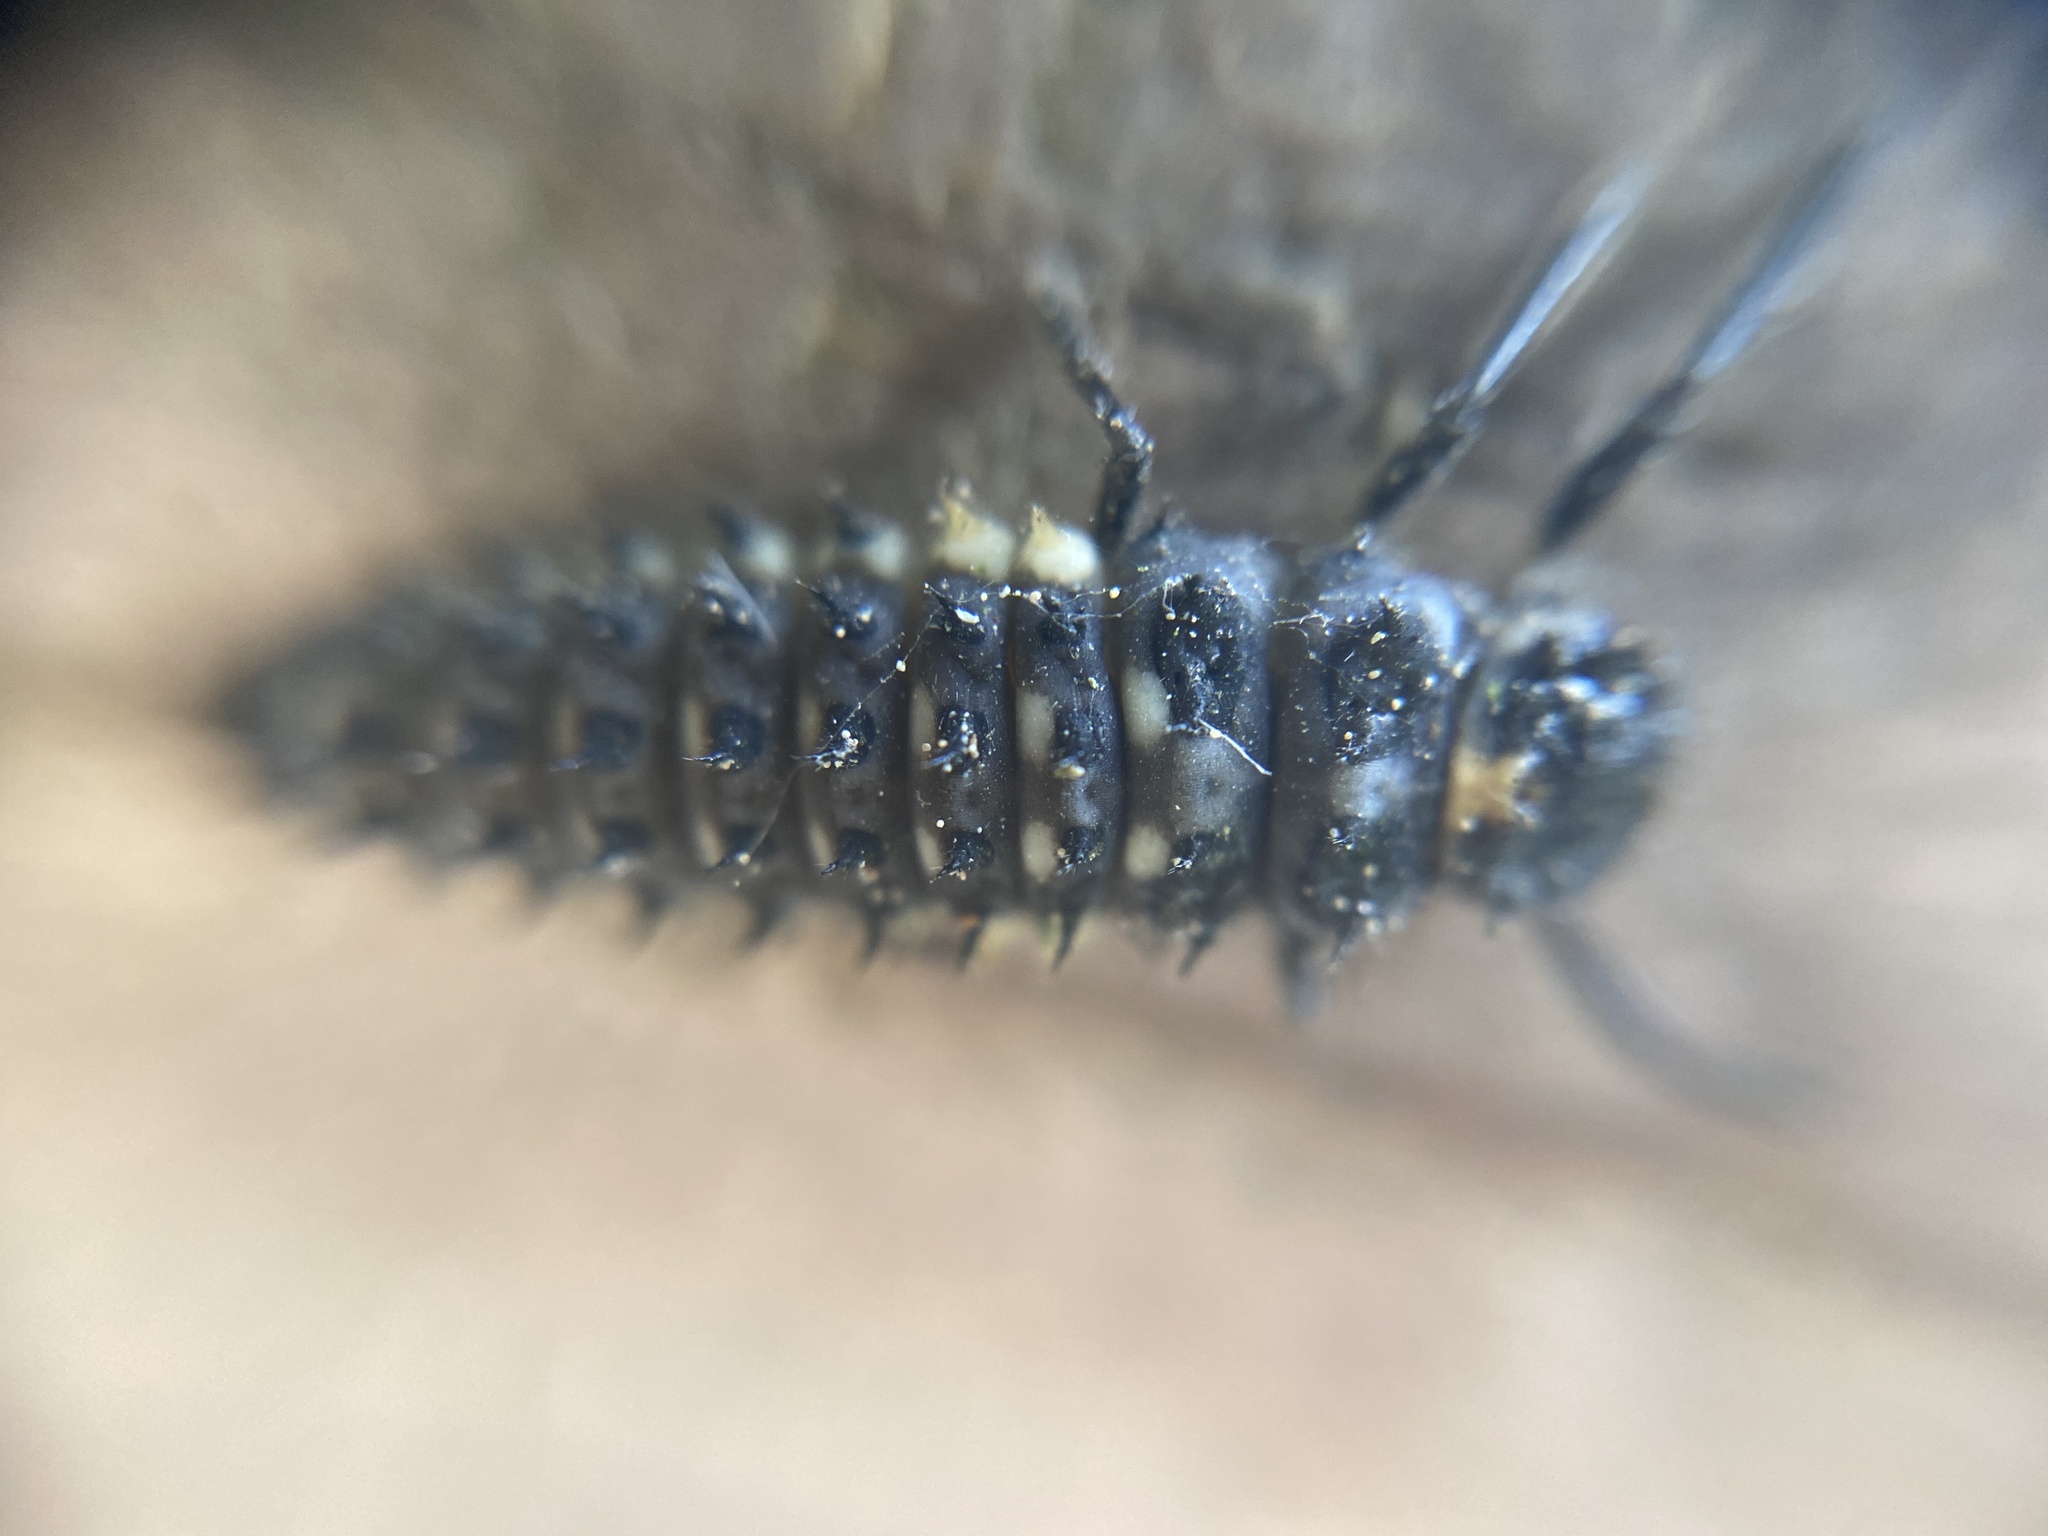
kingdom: Animalia
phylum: Arthropoda
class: Insecta
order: Coleoptera
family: Coccinellidae
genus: Anatis
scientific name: Anatis ocellata
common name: Eyed ladybird
